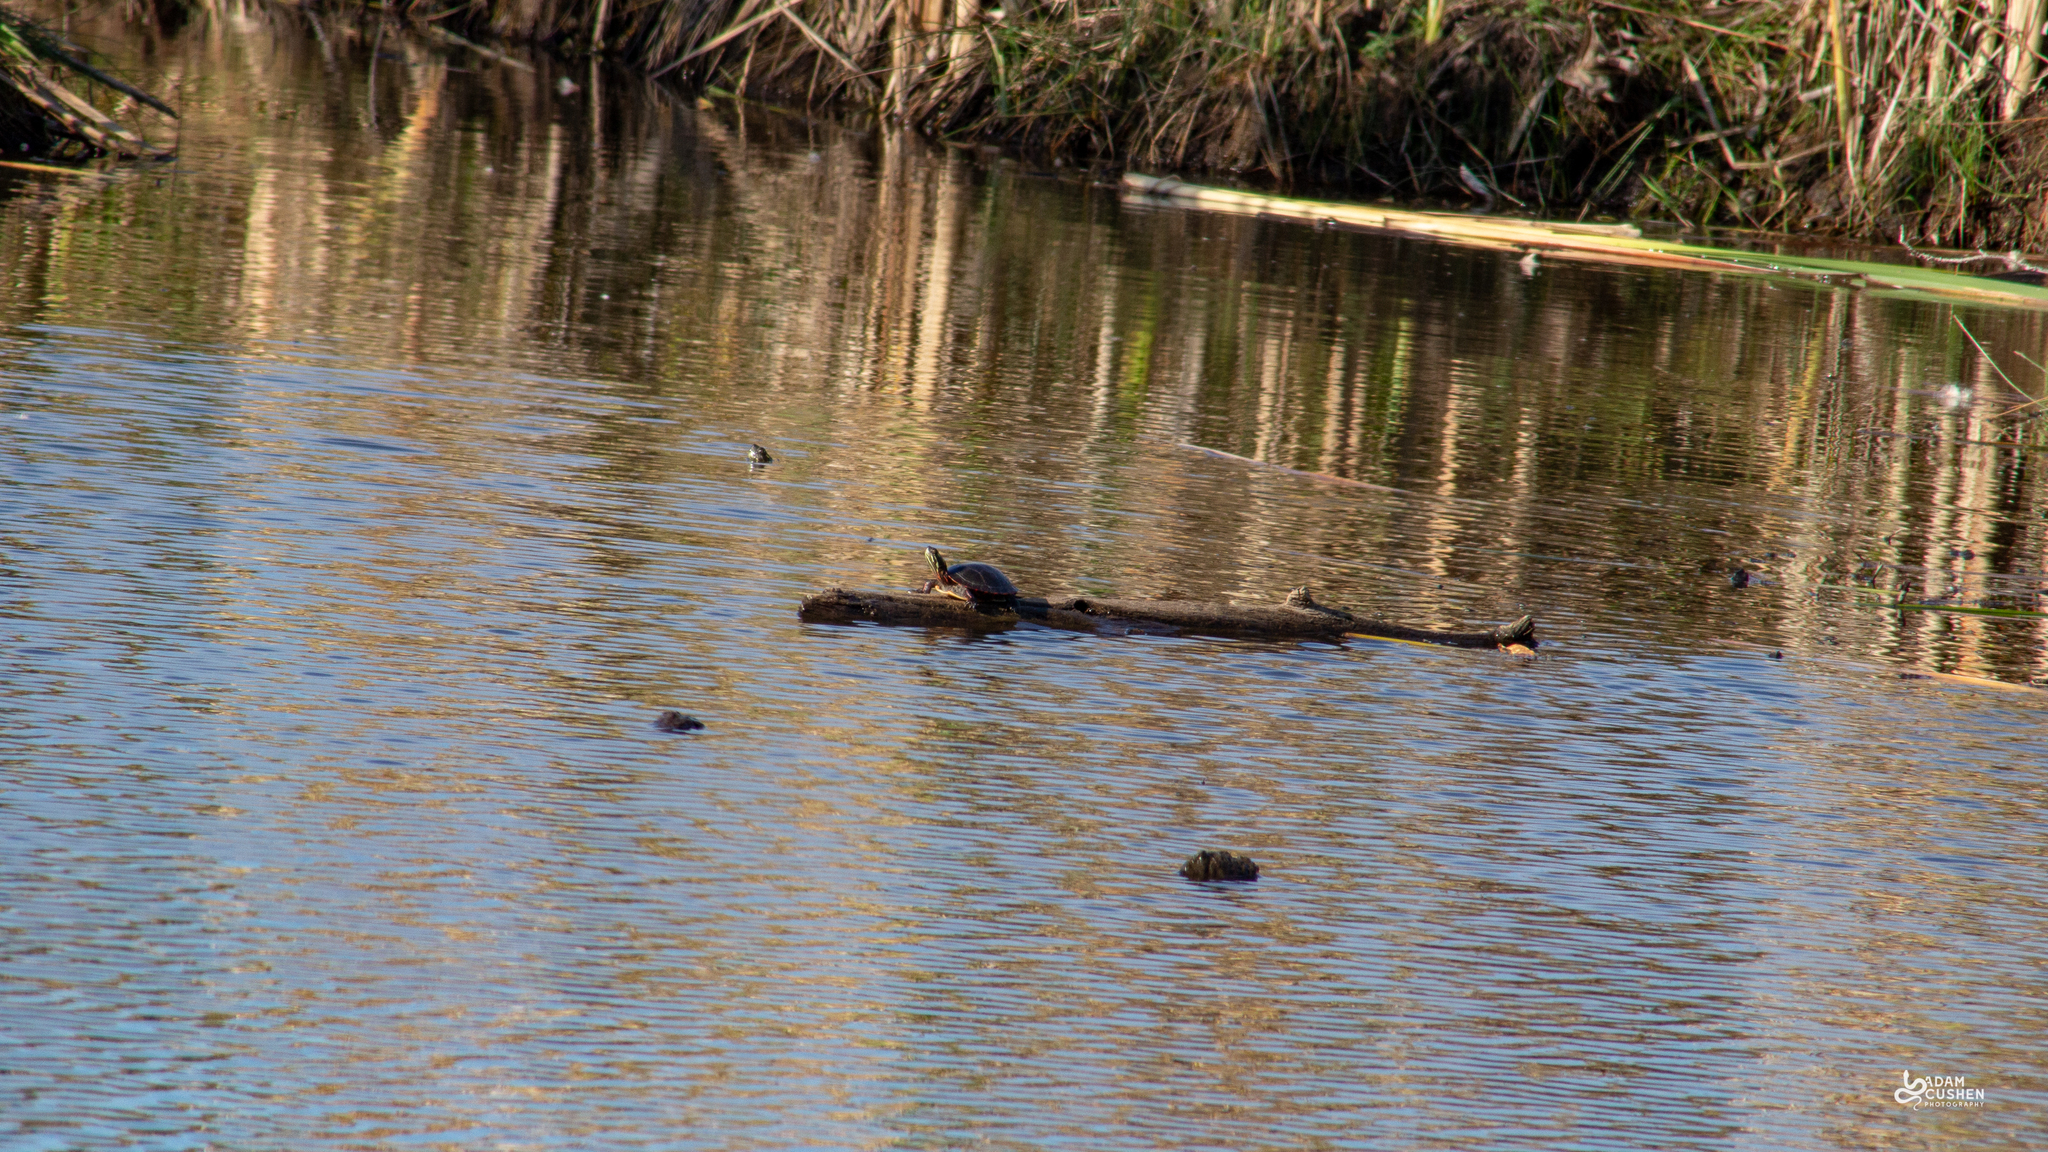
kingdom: Animalia
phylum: Chordata
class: Testudines
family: Emydidae
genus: Chrysemys
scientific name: Chrysemys picta
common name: Painted turtle
